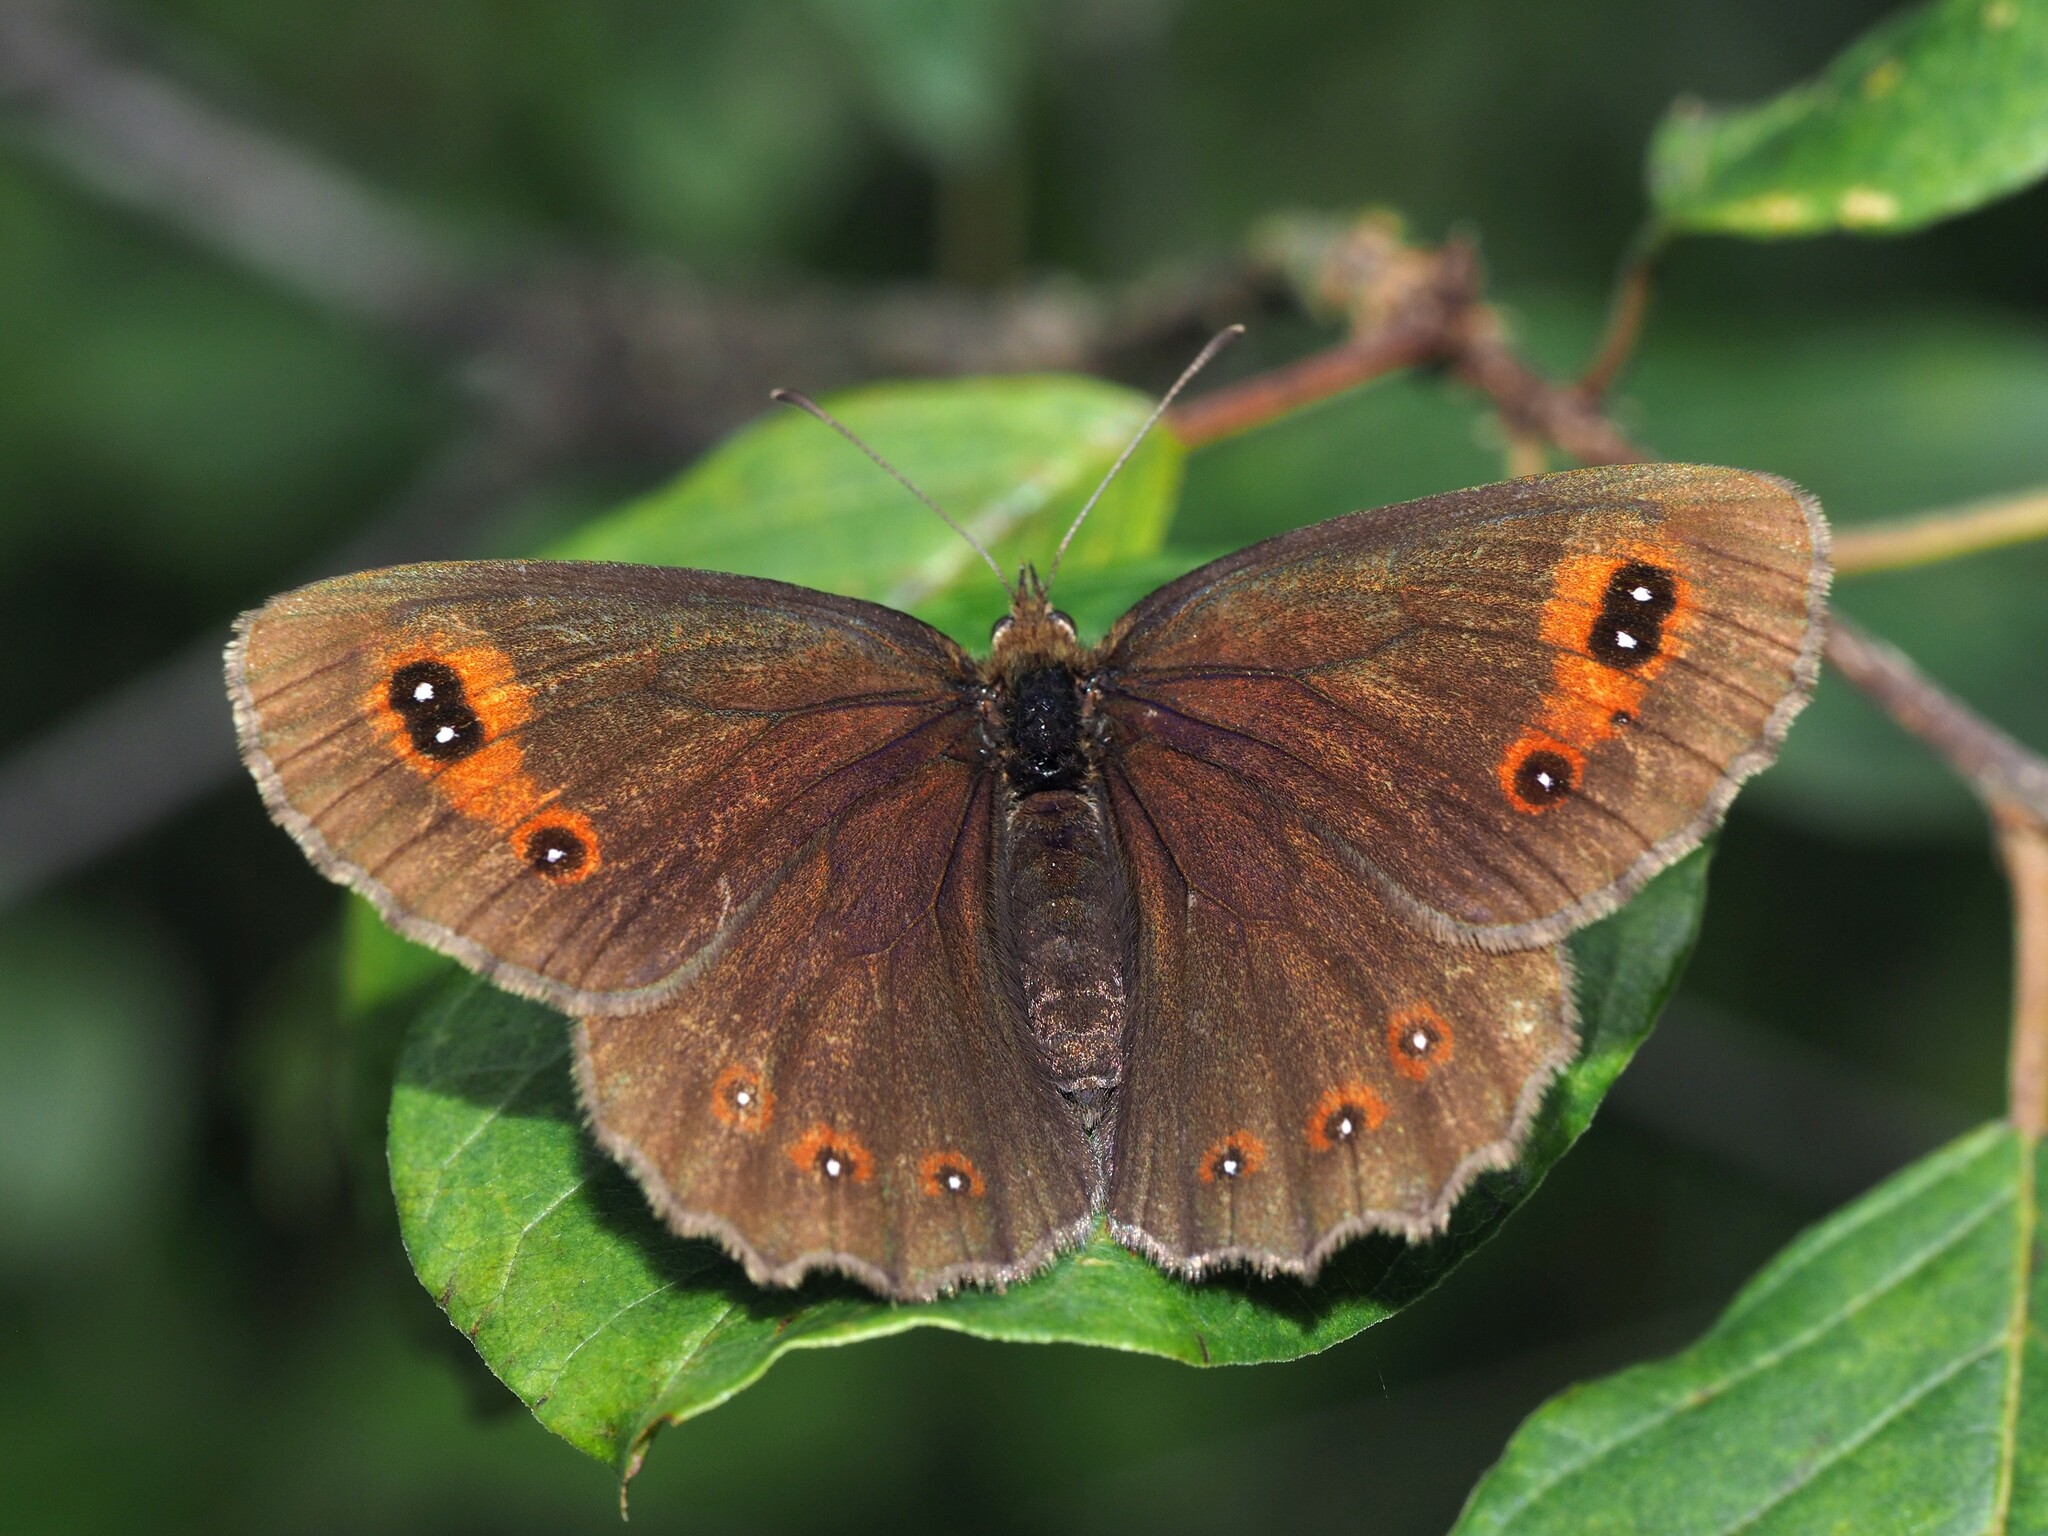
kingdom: Animalia
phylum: Arthropoda
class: Insecta
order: Lepidoptera
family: Nymphalidae
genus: Erebia
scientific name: Erebia aethiops
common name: Scotch argus
